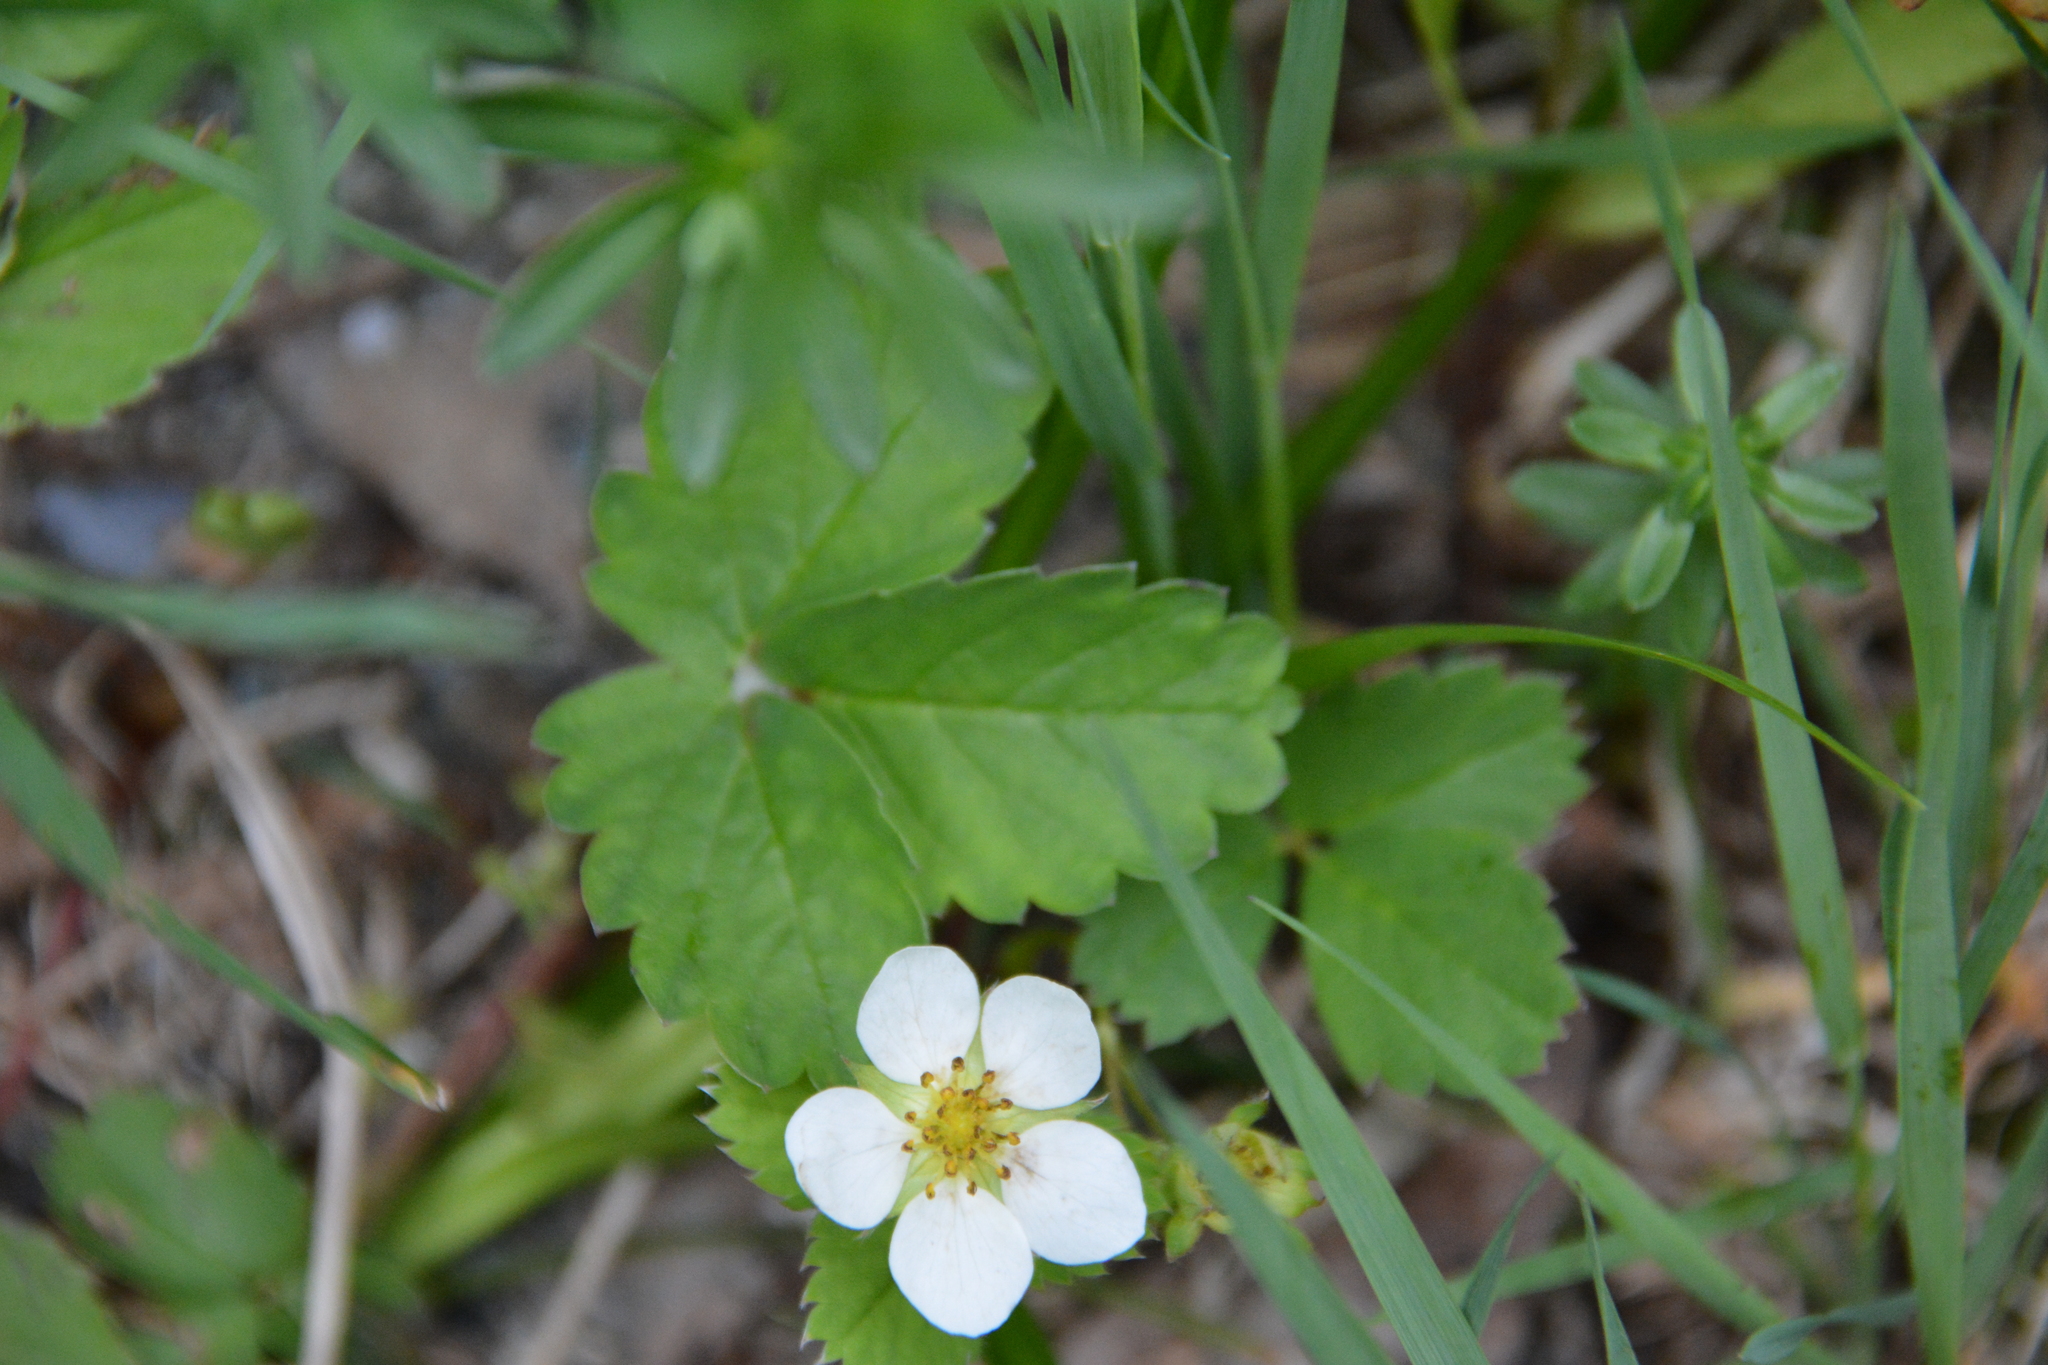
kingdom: Plantae
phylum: Tracheophyta
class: Magnoliopsida
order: Rosales
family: Rosaceae
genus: Fragaria
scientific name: Fragaria vesca
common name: Wild strawberry
